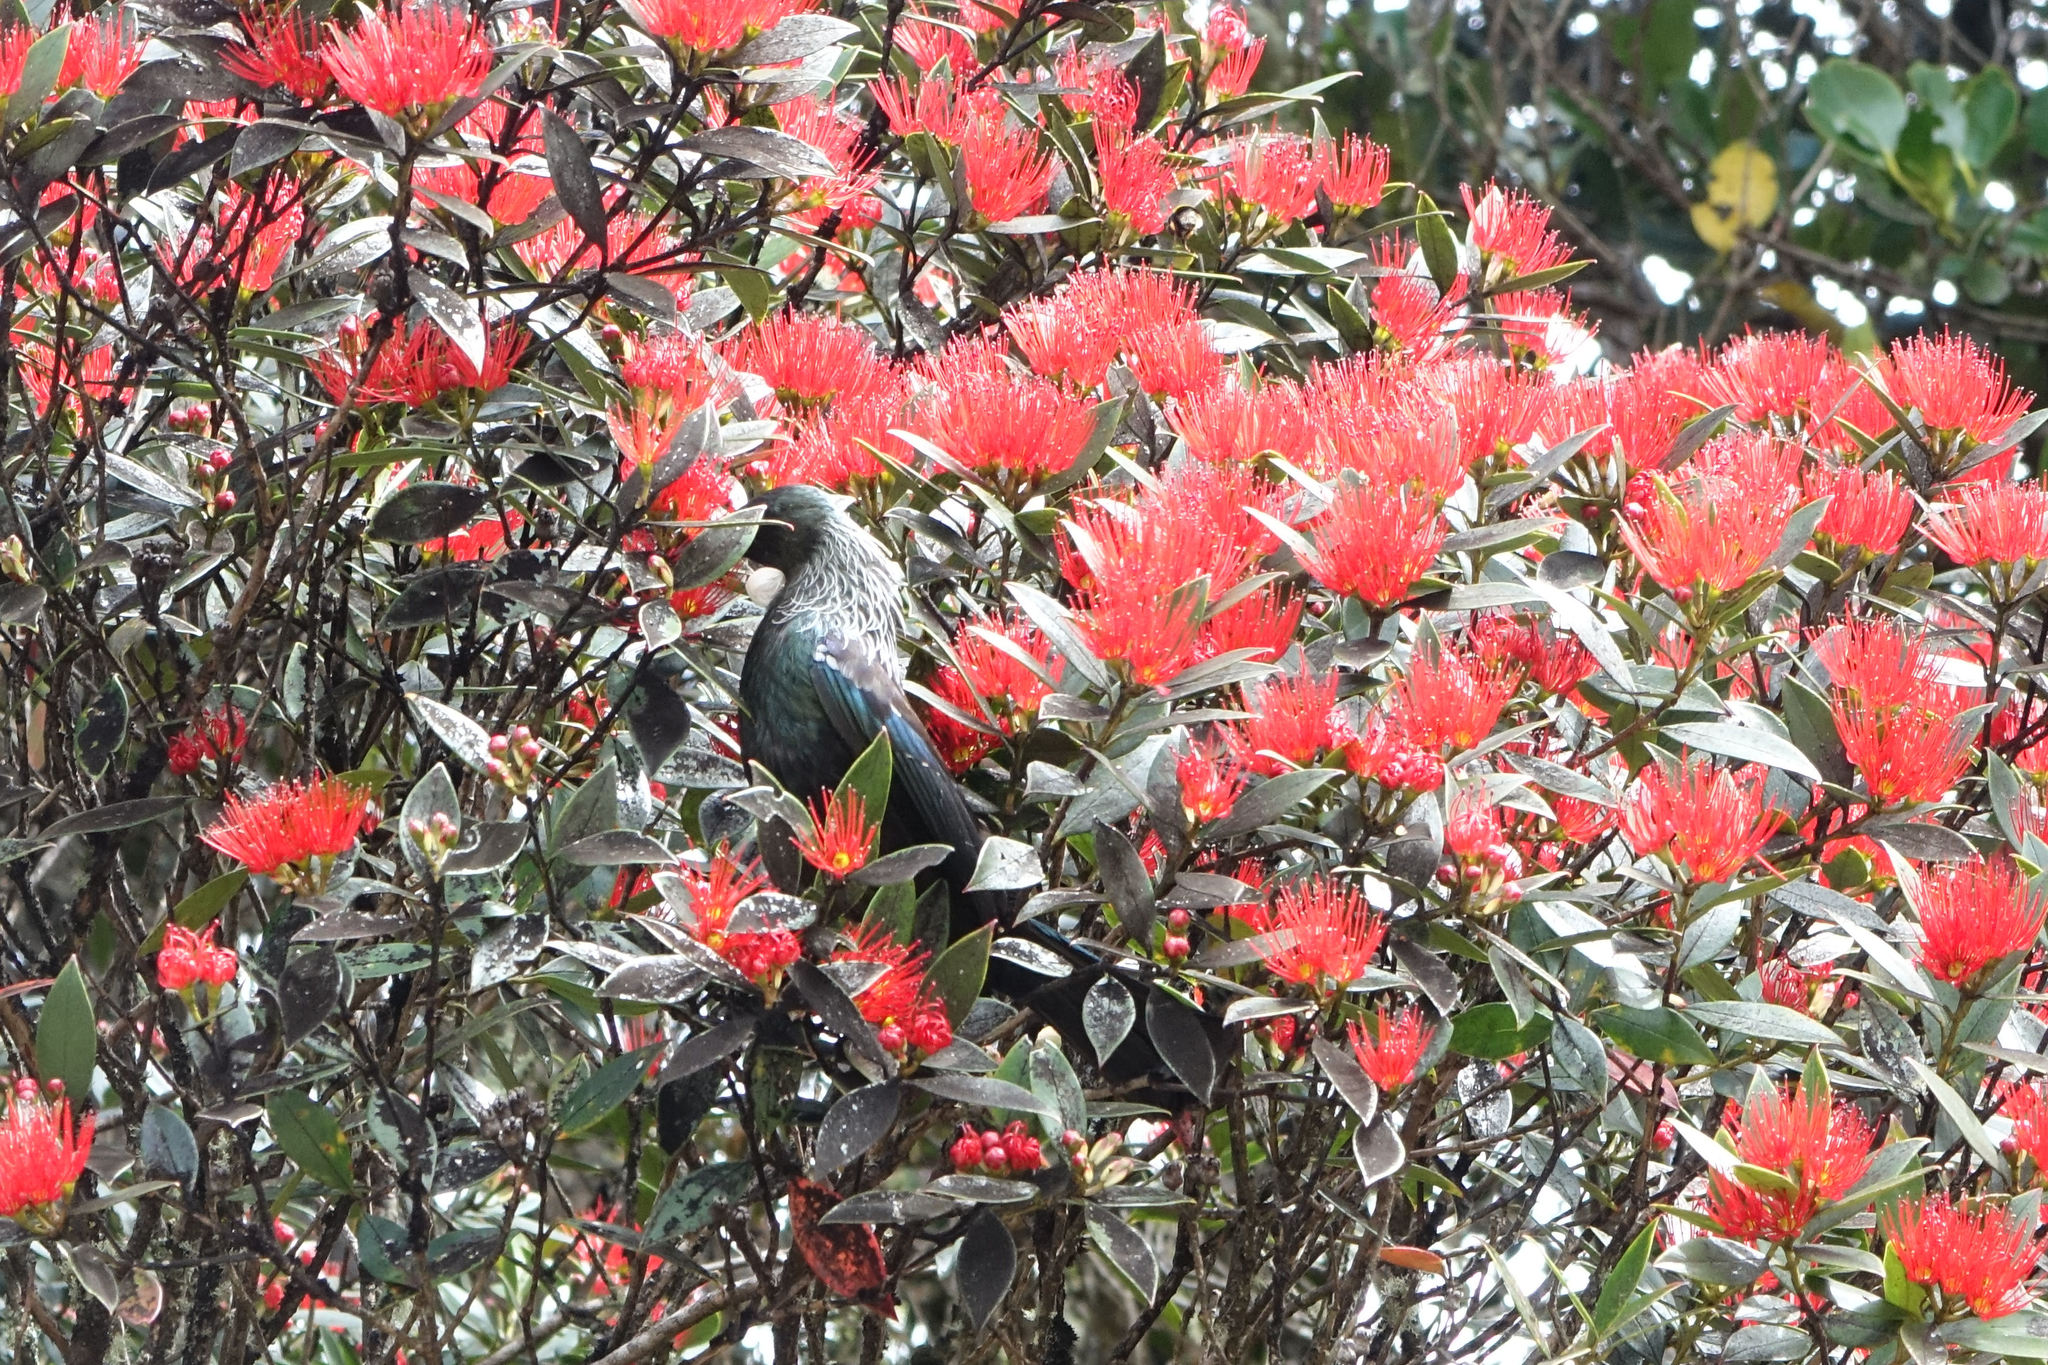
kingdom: Animalia
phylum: Chordata
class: Aves
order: Passeriformes
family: Meliphagidae
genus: Prosthemadera
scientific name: Prosthemadera novaeseelandiae
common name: Tui
